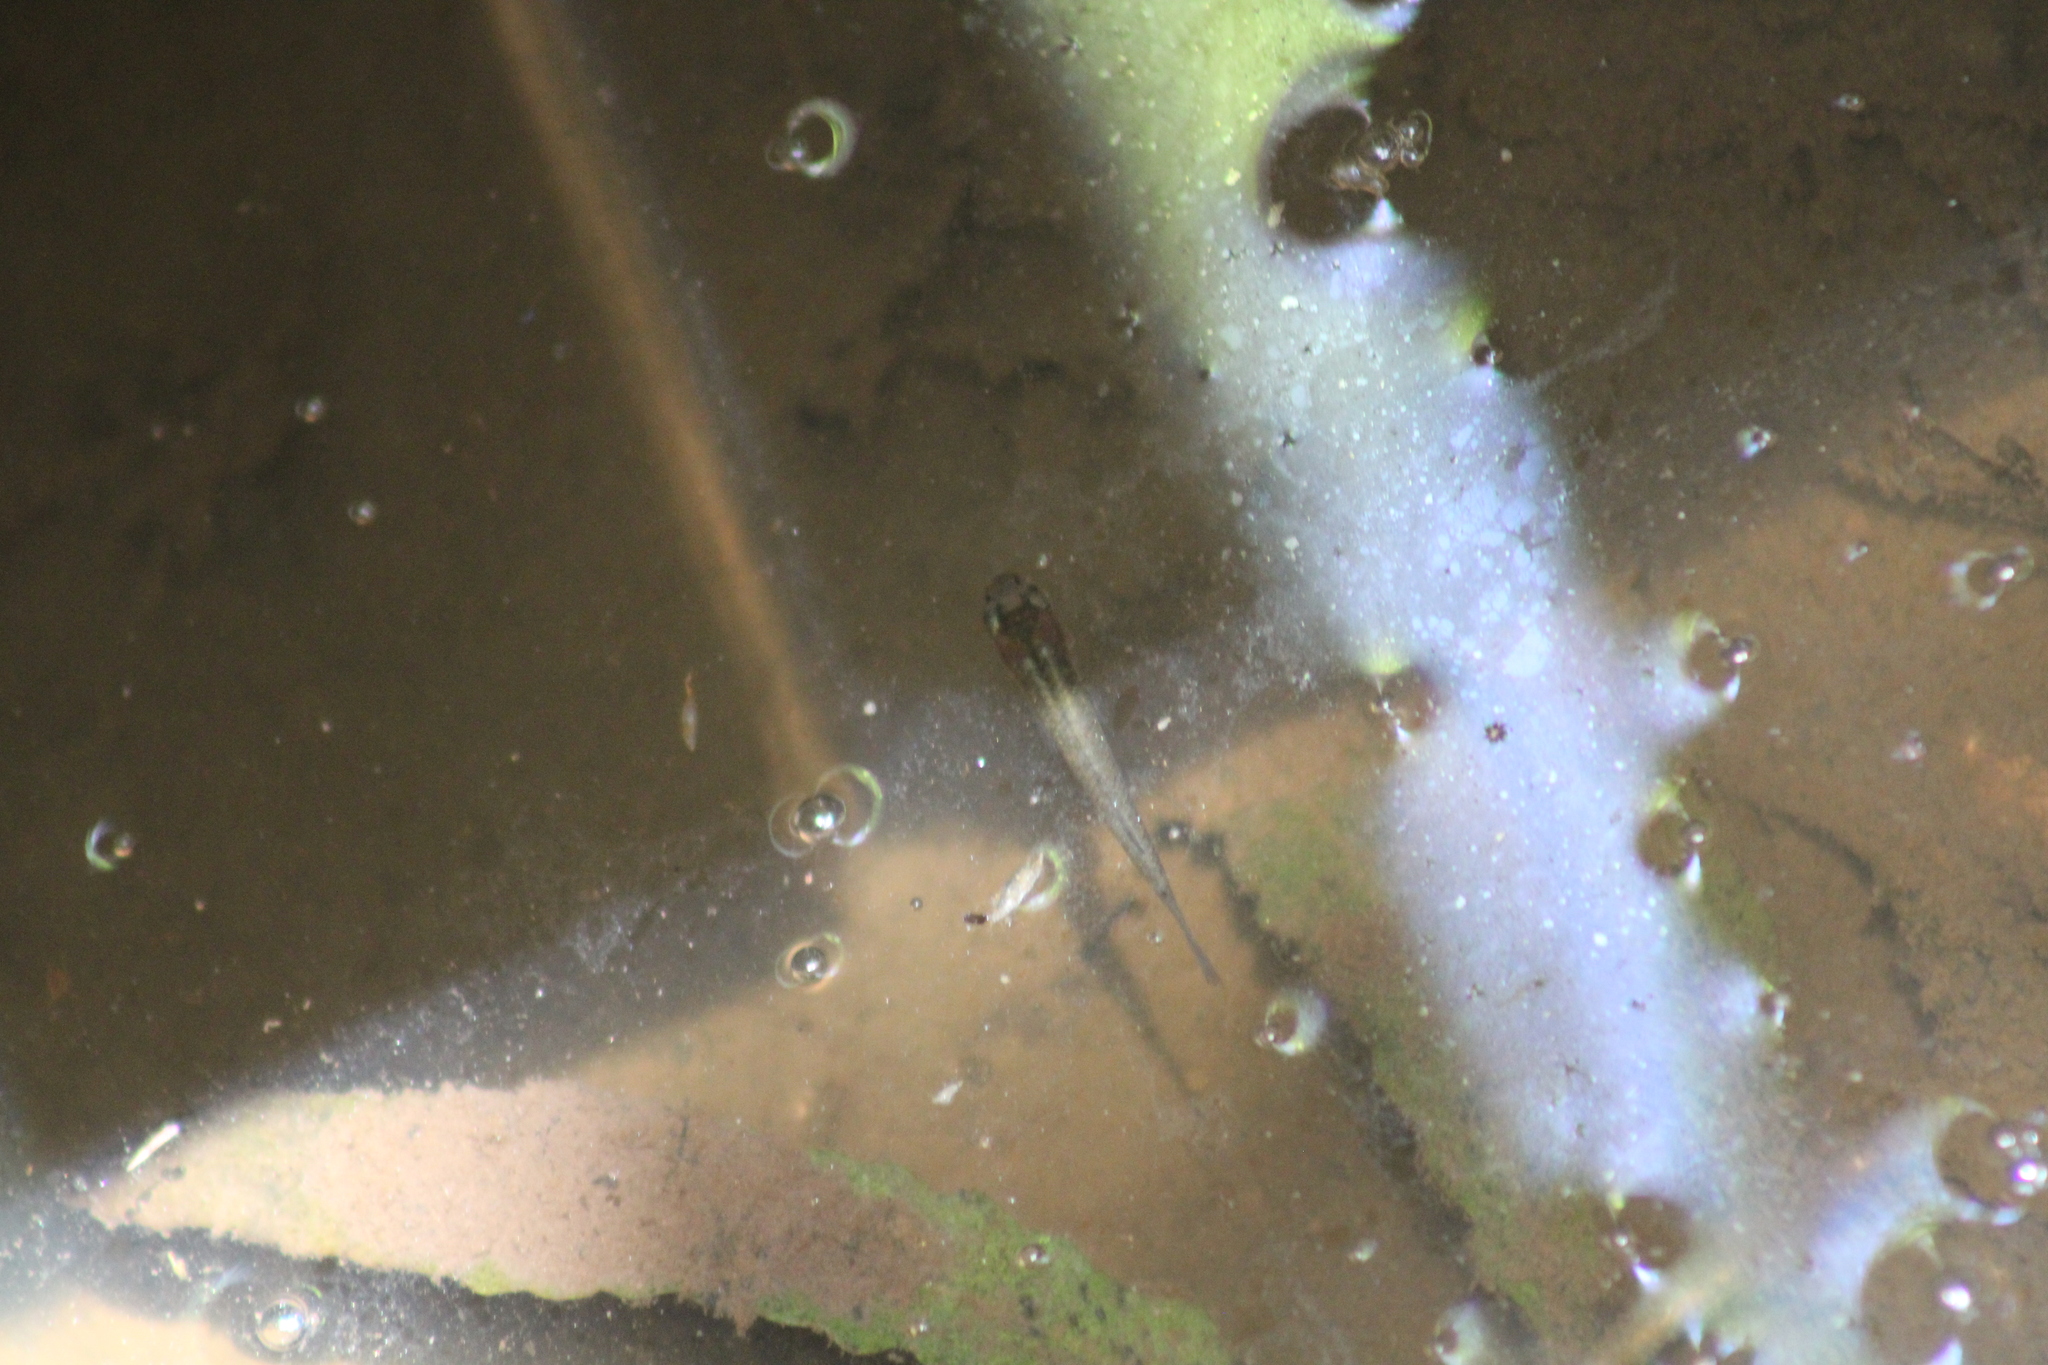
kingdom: Animalia
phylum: Chordata
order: Cyprinodontiformes
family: Poeciliidae
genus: Gambusia
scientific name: Gambusia holbrooki
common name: Eastern mosquitofish
